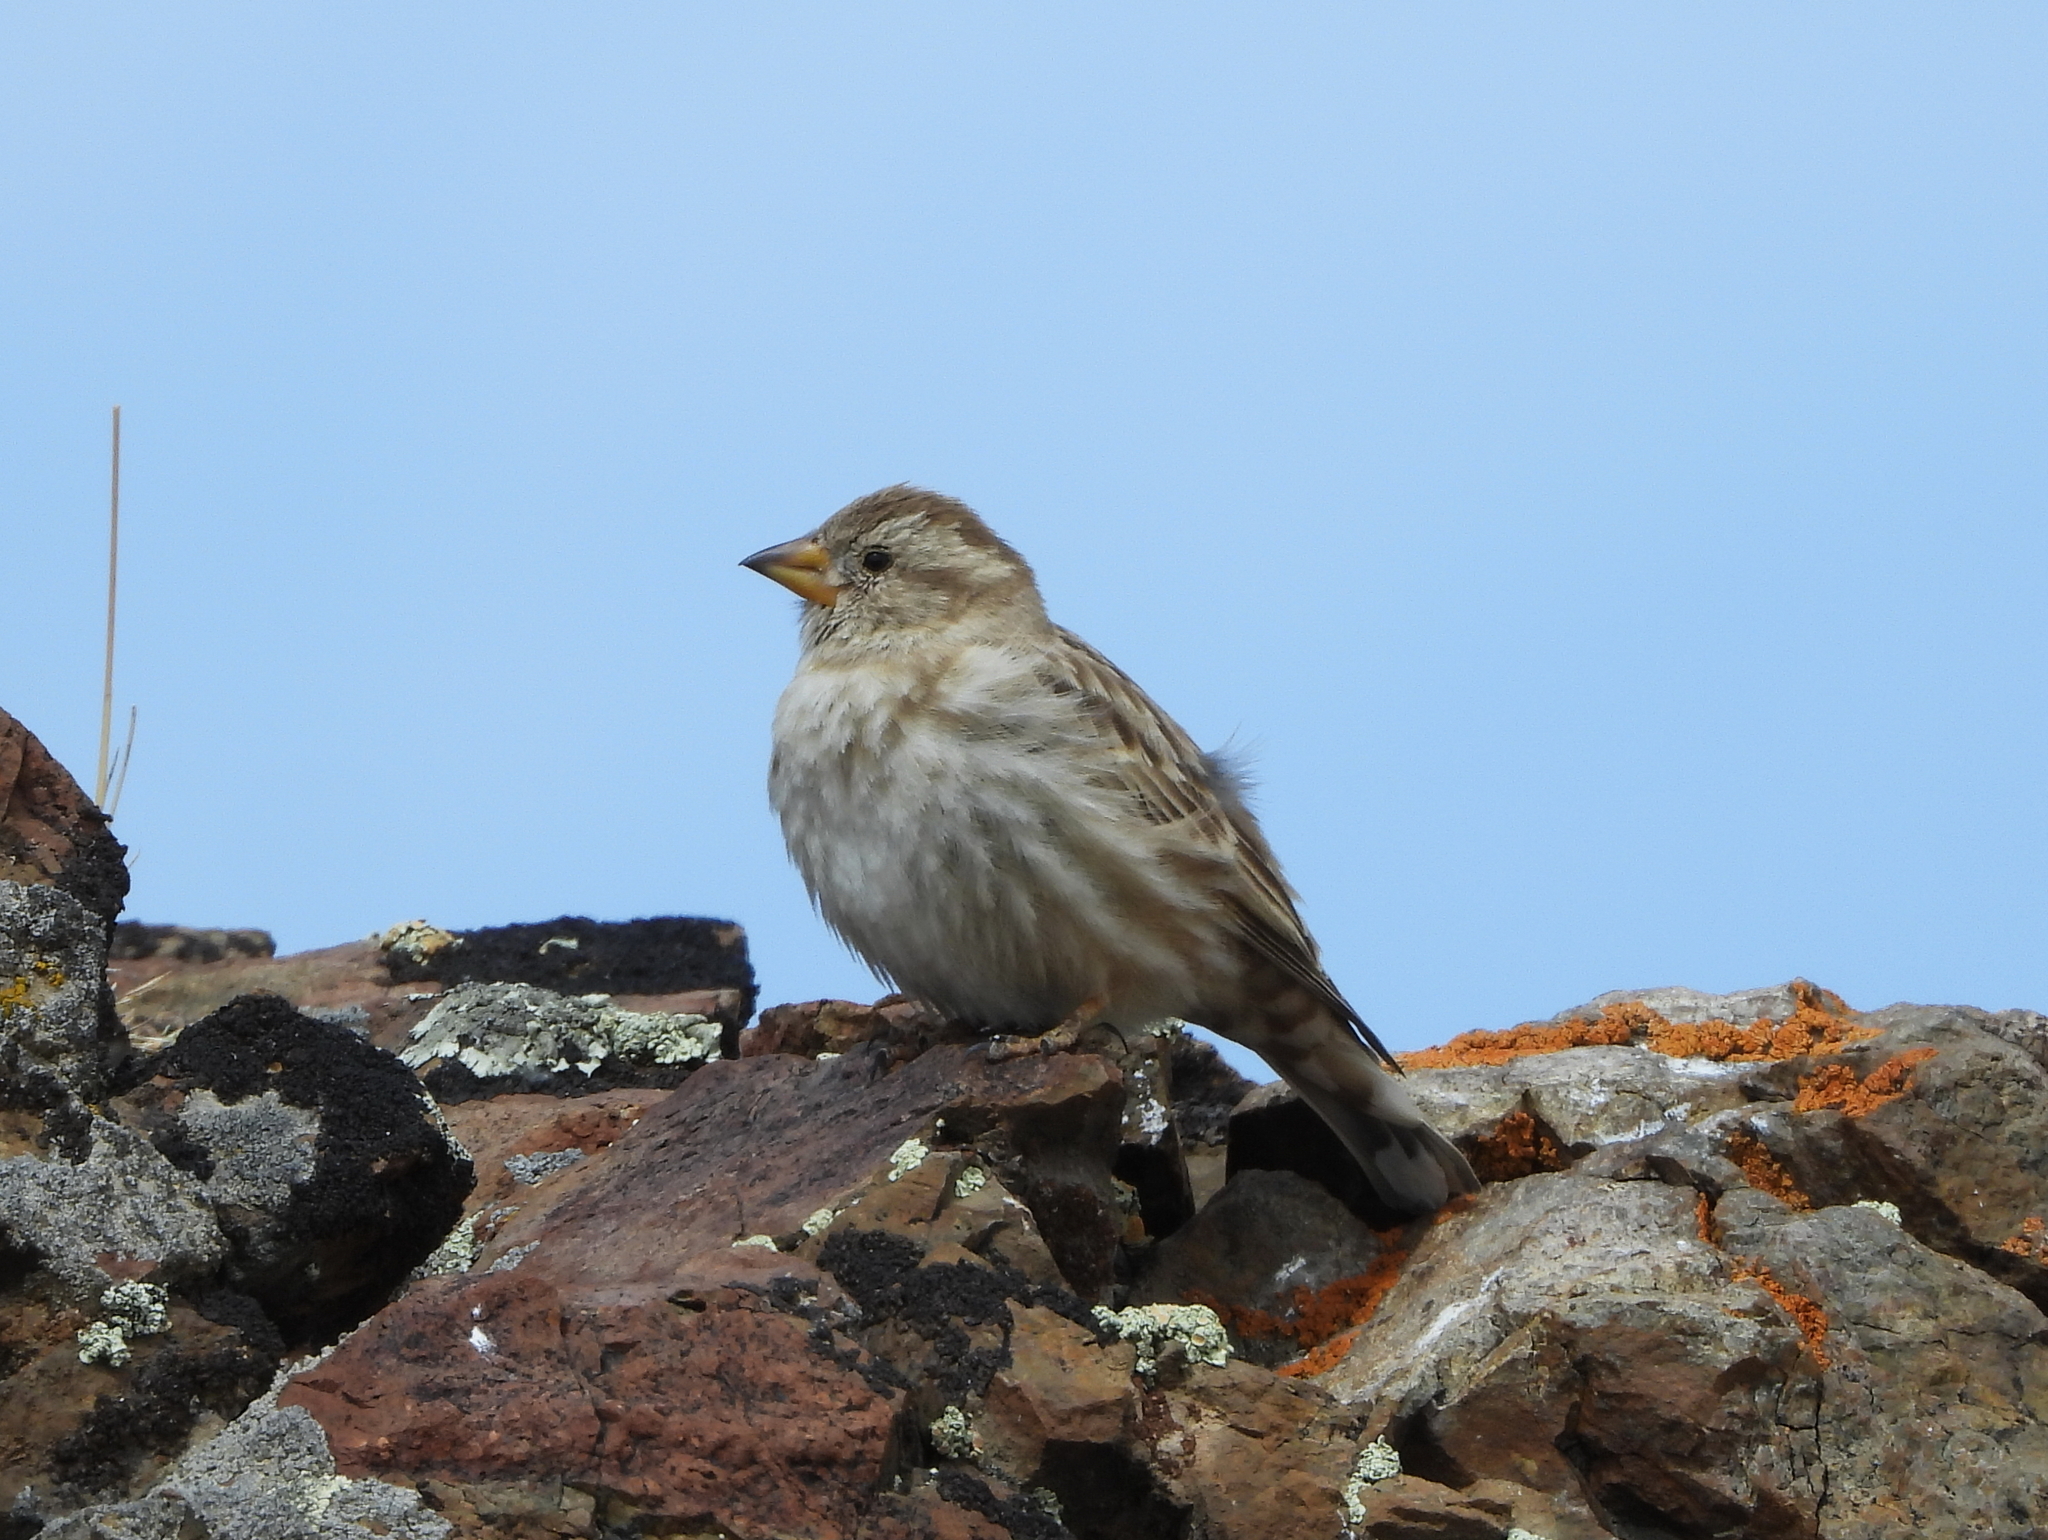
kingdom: Animalia
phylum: Chordata
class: Aves
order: Passeriformes
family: Passeridae
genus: Petronia
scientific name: Petronia petronia
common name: Rock sparrow
